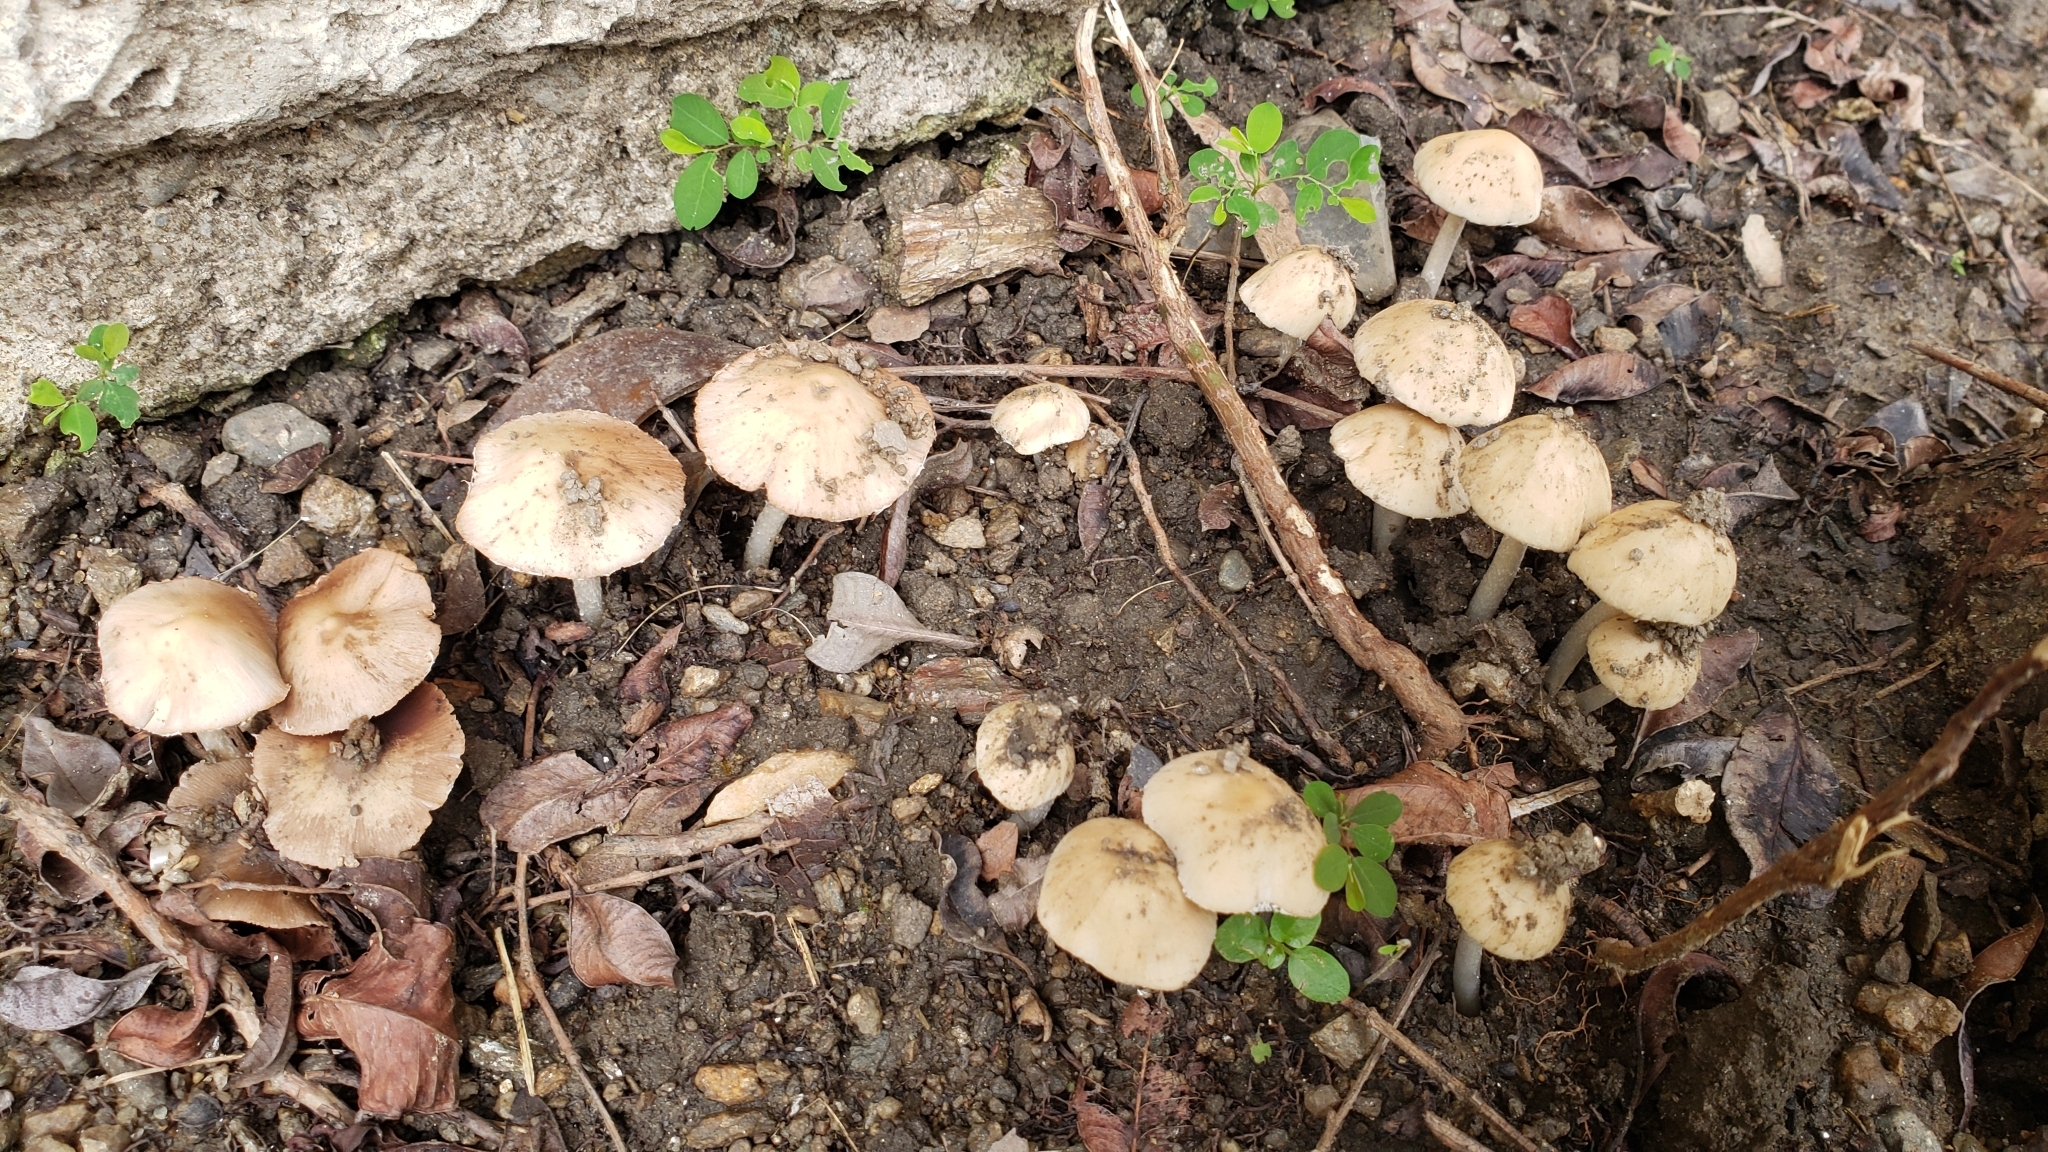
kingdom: Fungi
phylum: Basidiomycota
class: Agaricomycetes
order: Agaricales
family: Psathyrellaceae
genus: Candolleomyces
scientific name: Candolleomyces candolleanus
